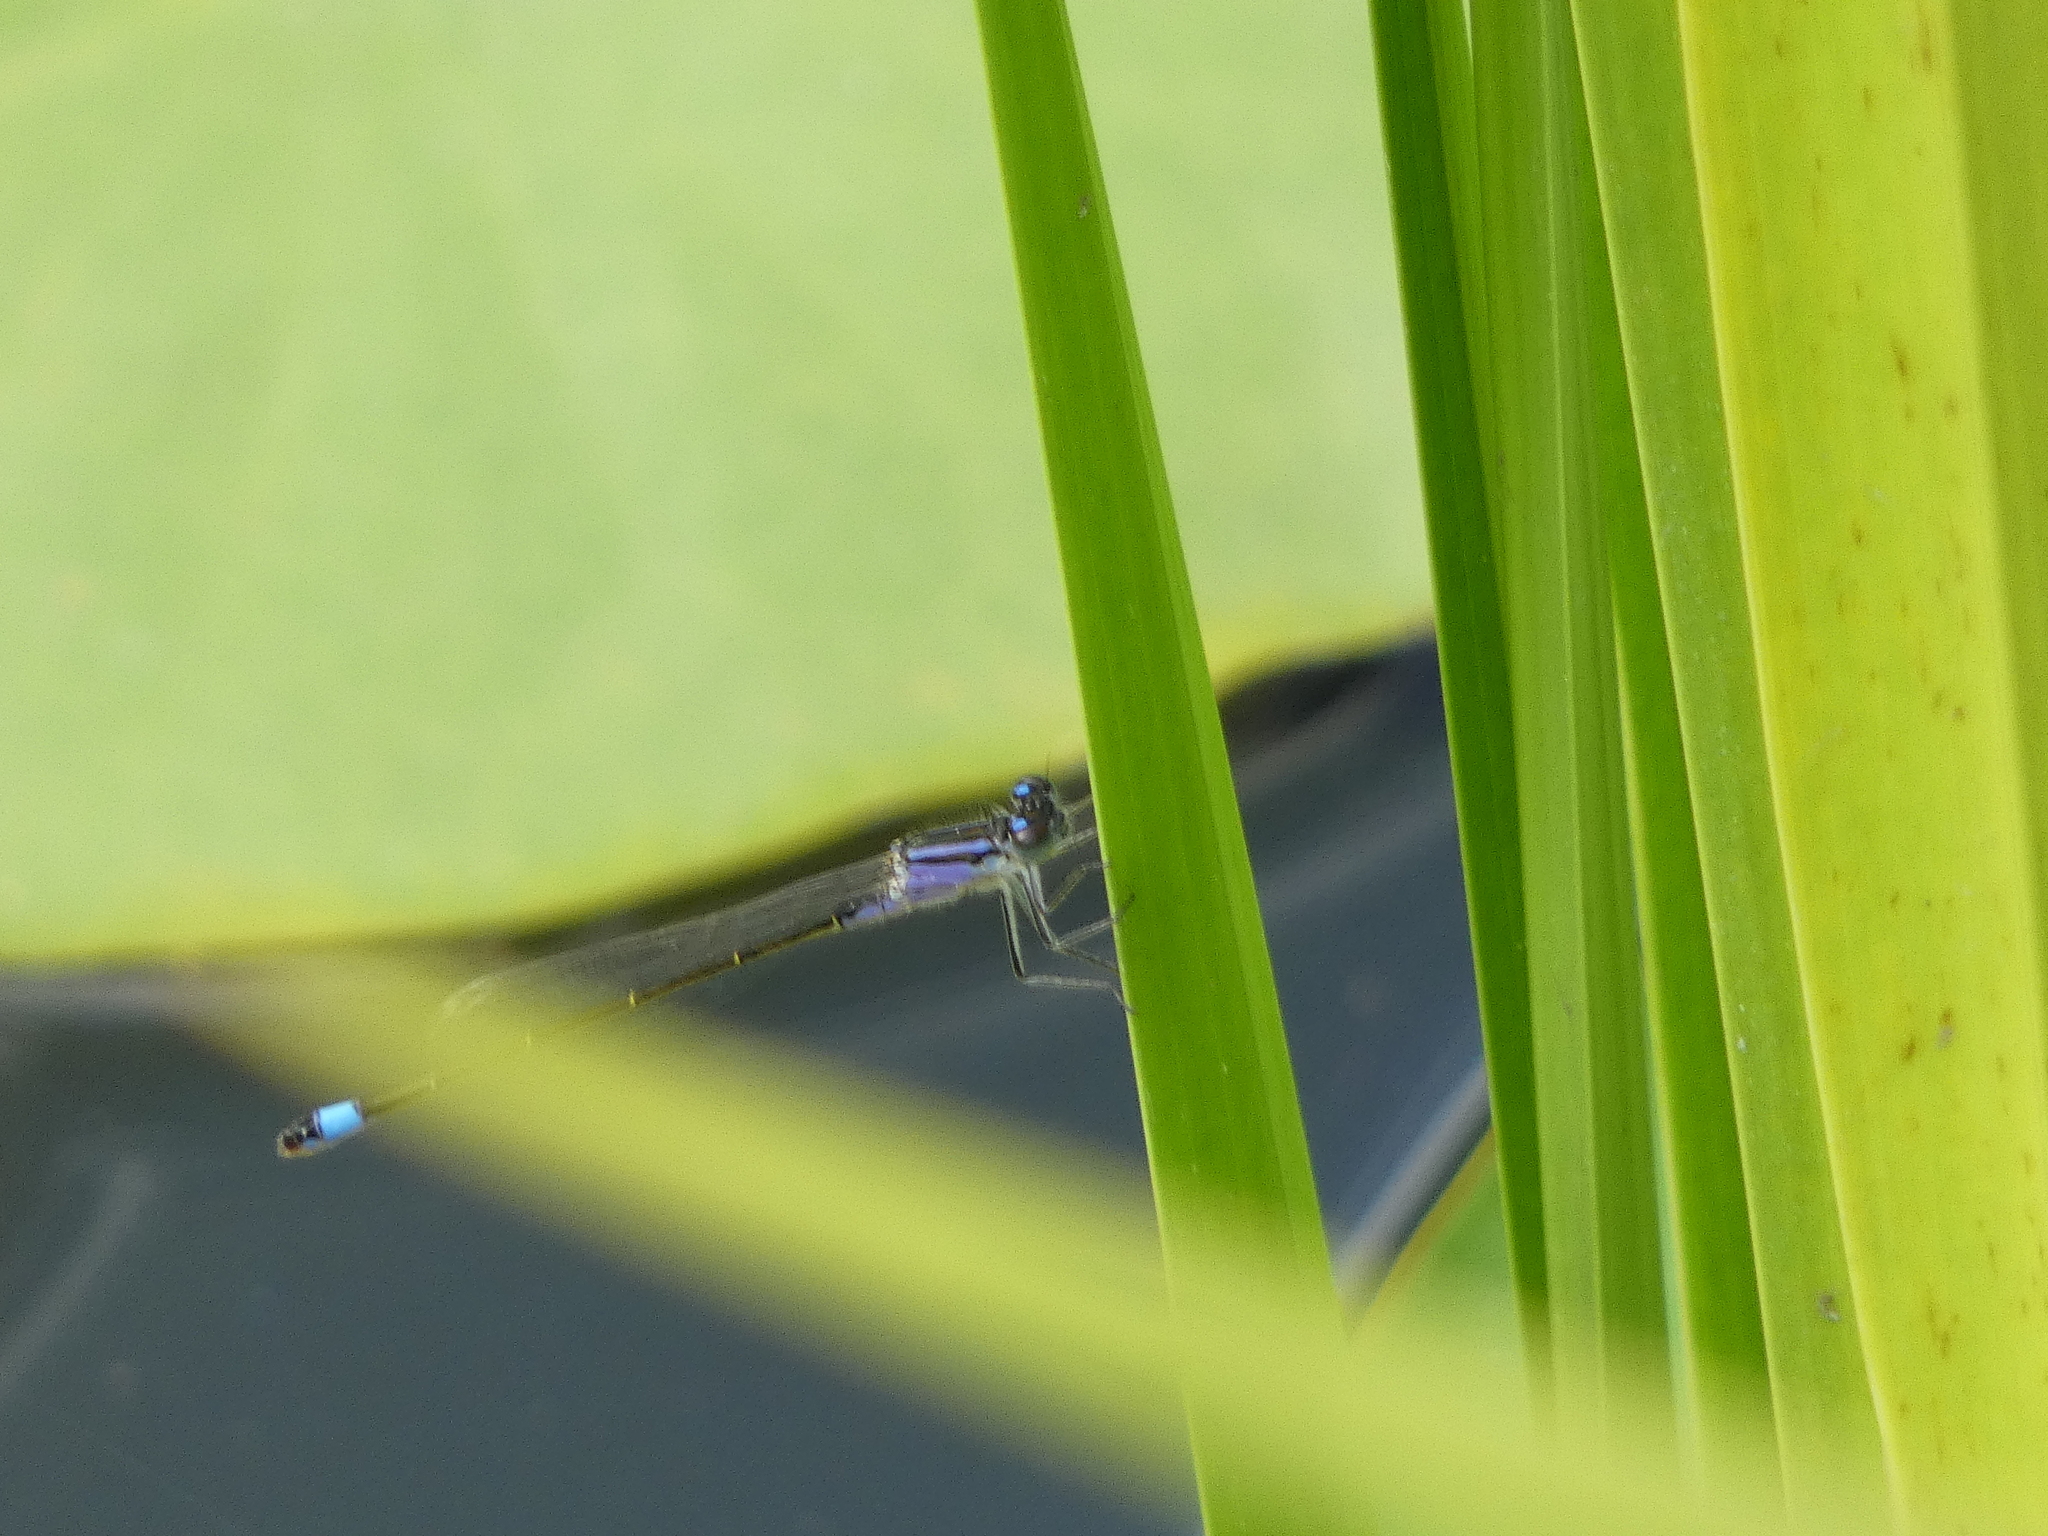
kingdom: Animalia
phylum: Arthropoda
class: Insecta
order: Odonata
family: Coenagrionidae
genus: Ischnura
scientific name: Ischnura elegans
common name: Blue-tailed damselfly
